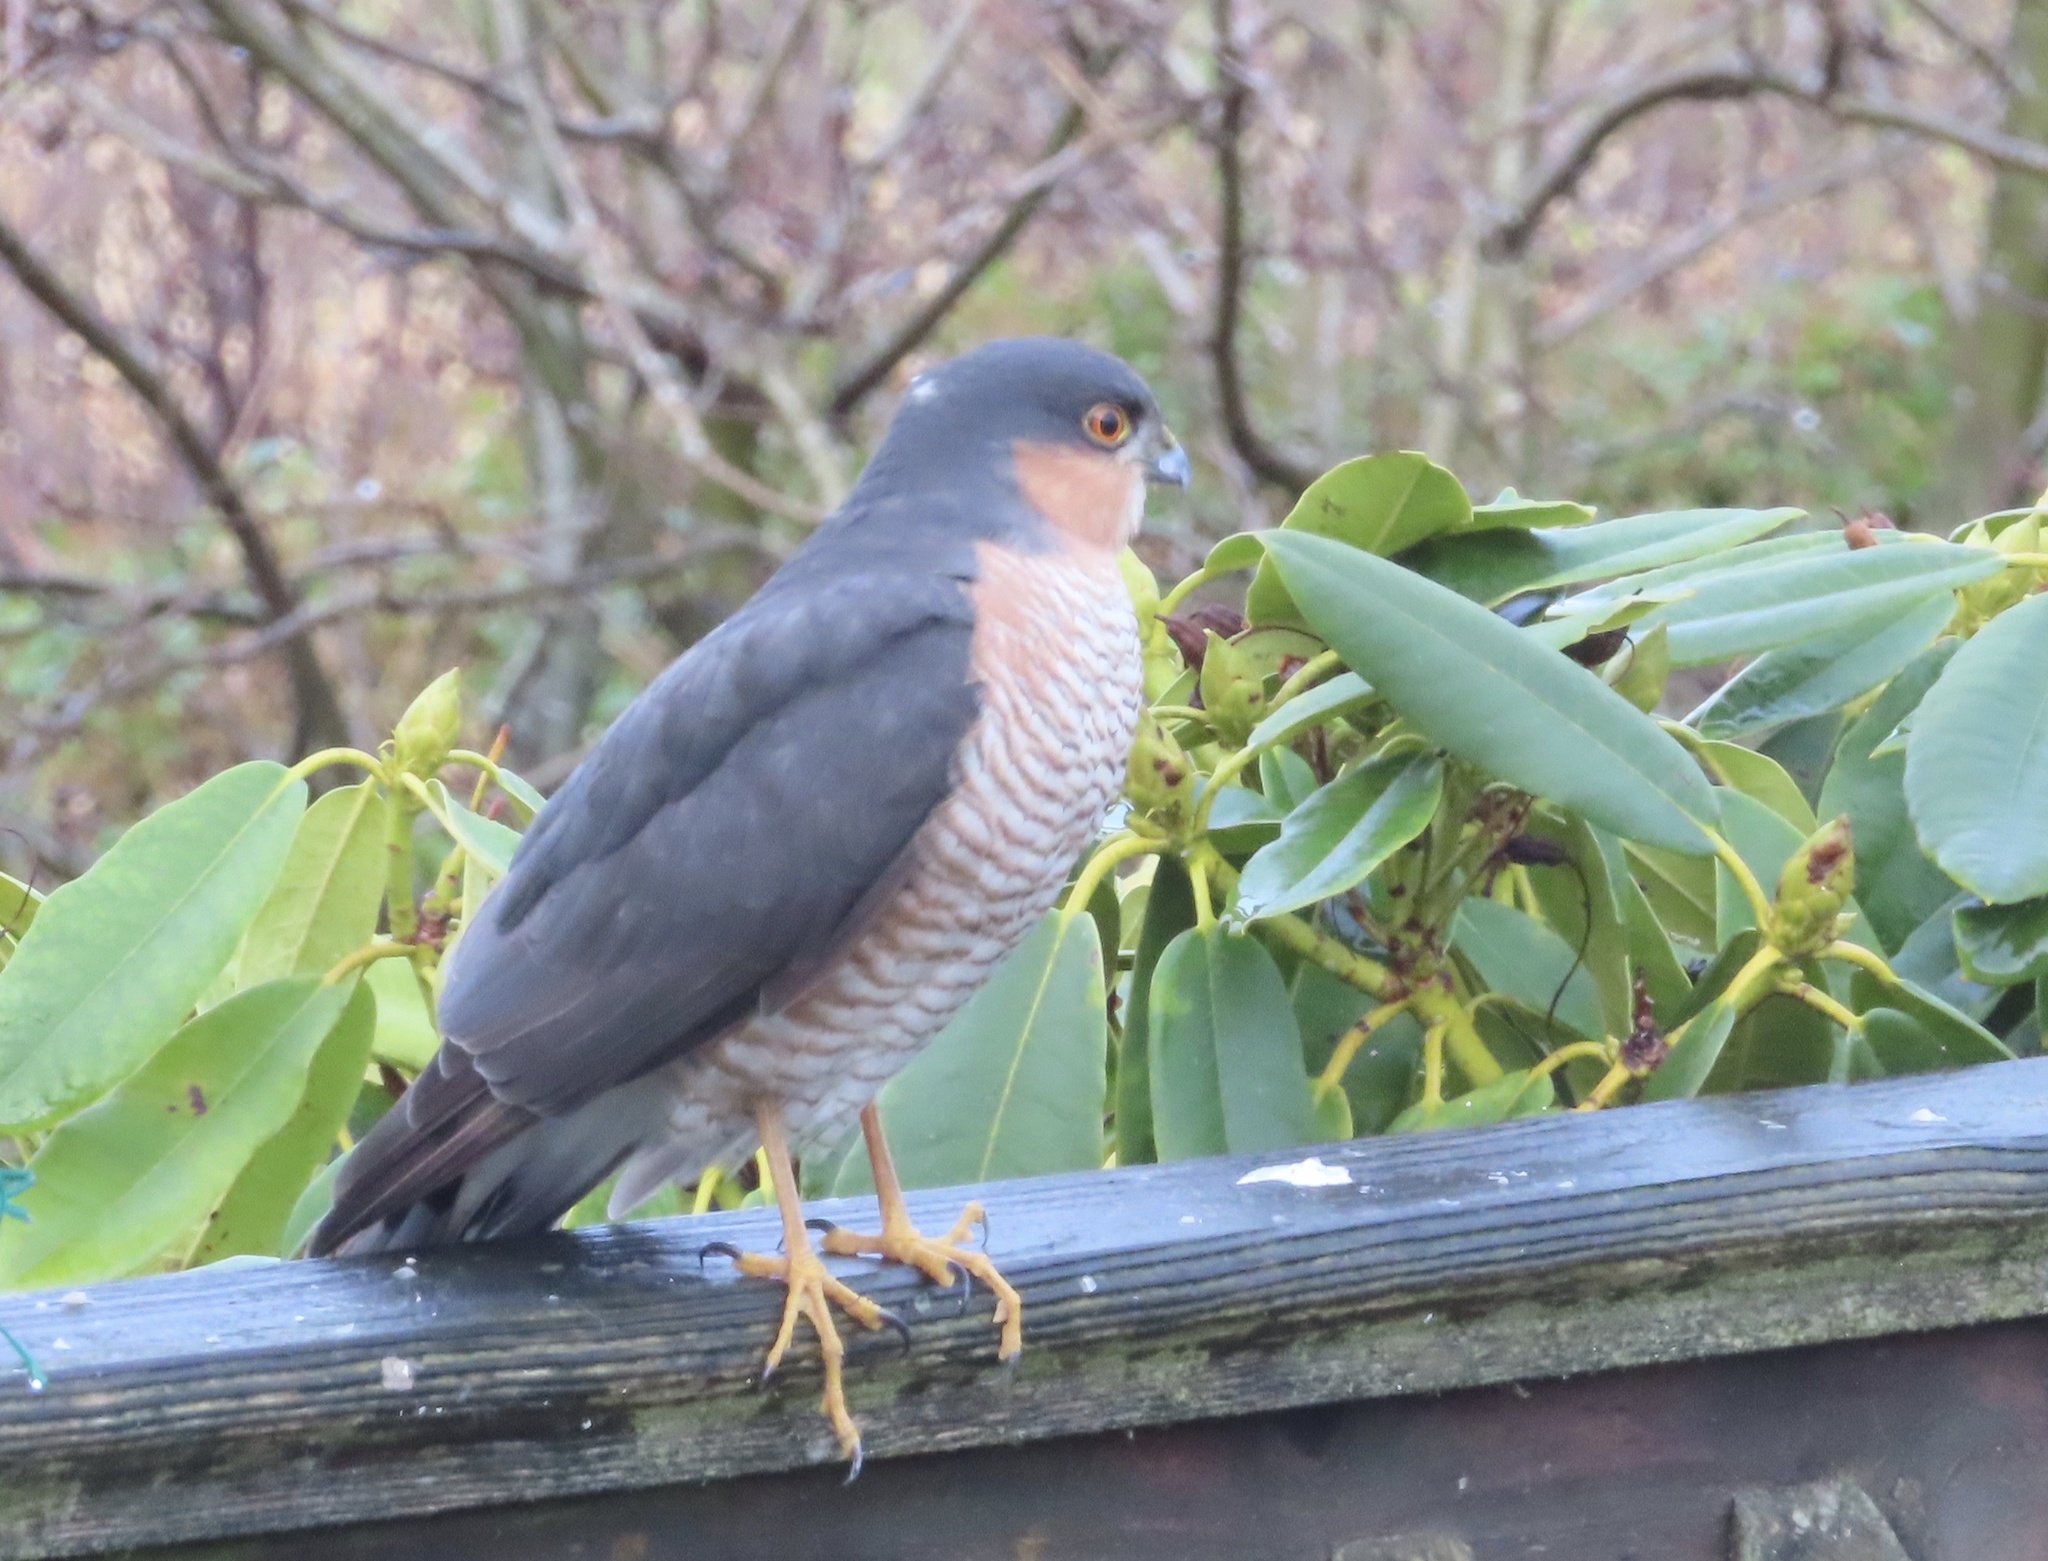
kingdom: Animalia
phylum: Chordata
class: Aves
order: Accipitriformes
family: Accipitridae
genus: Accipiter
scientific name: Accipiter nisus
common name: Eurasian sparrowhawk
